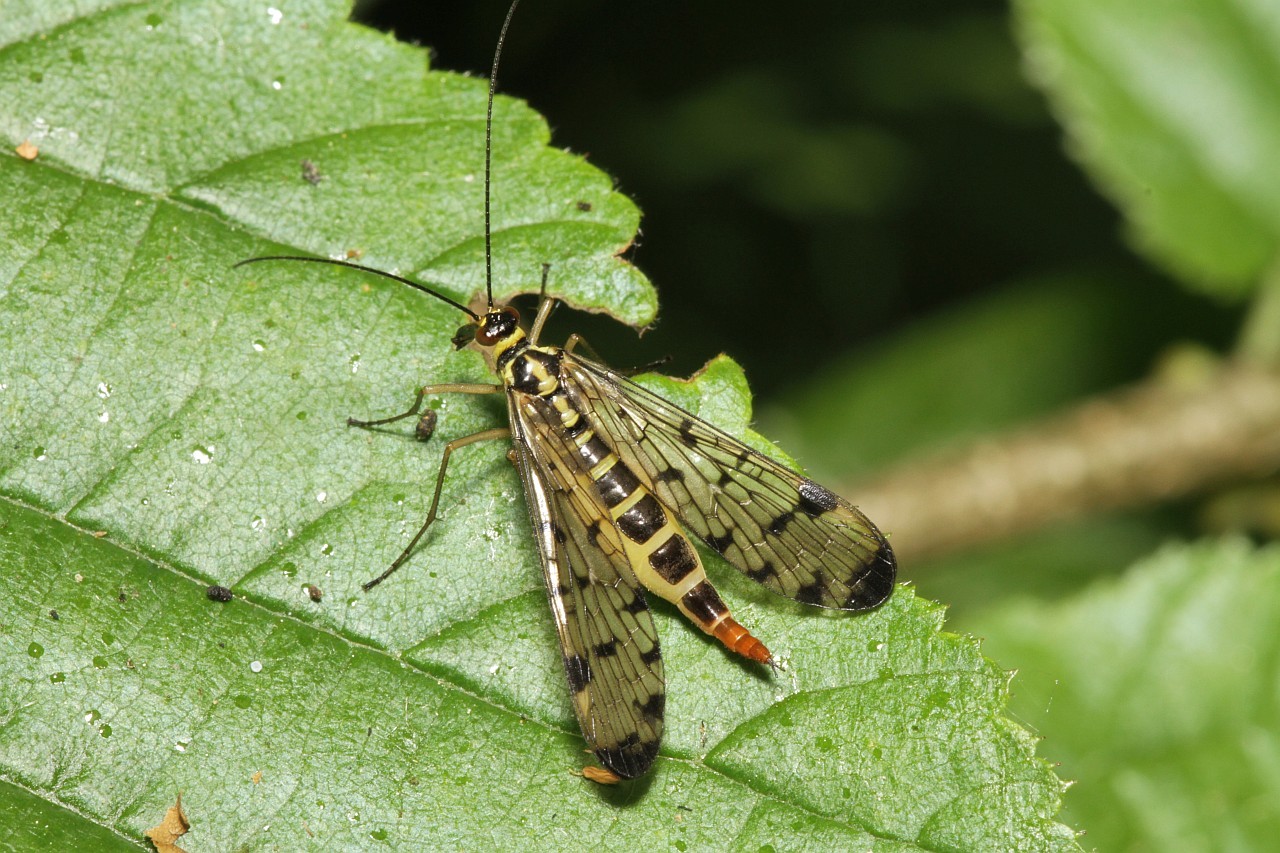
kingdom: Animalia
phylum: Arthropoda
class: Insecta
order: Mecoptera
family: Panorpidae
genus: Panorpa
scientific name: Panorpa germanica
